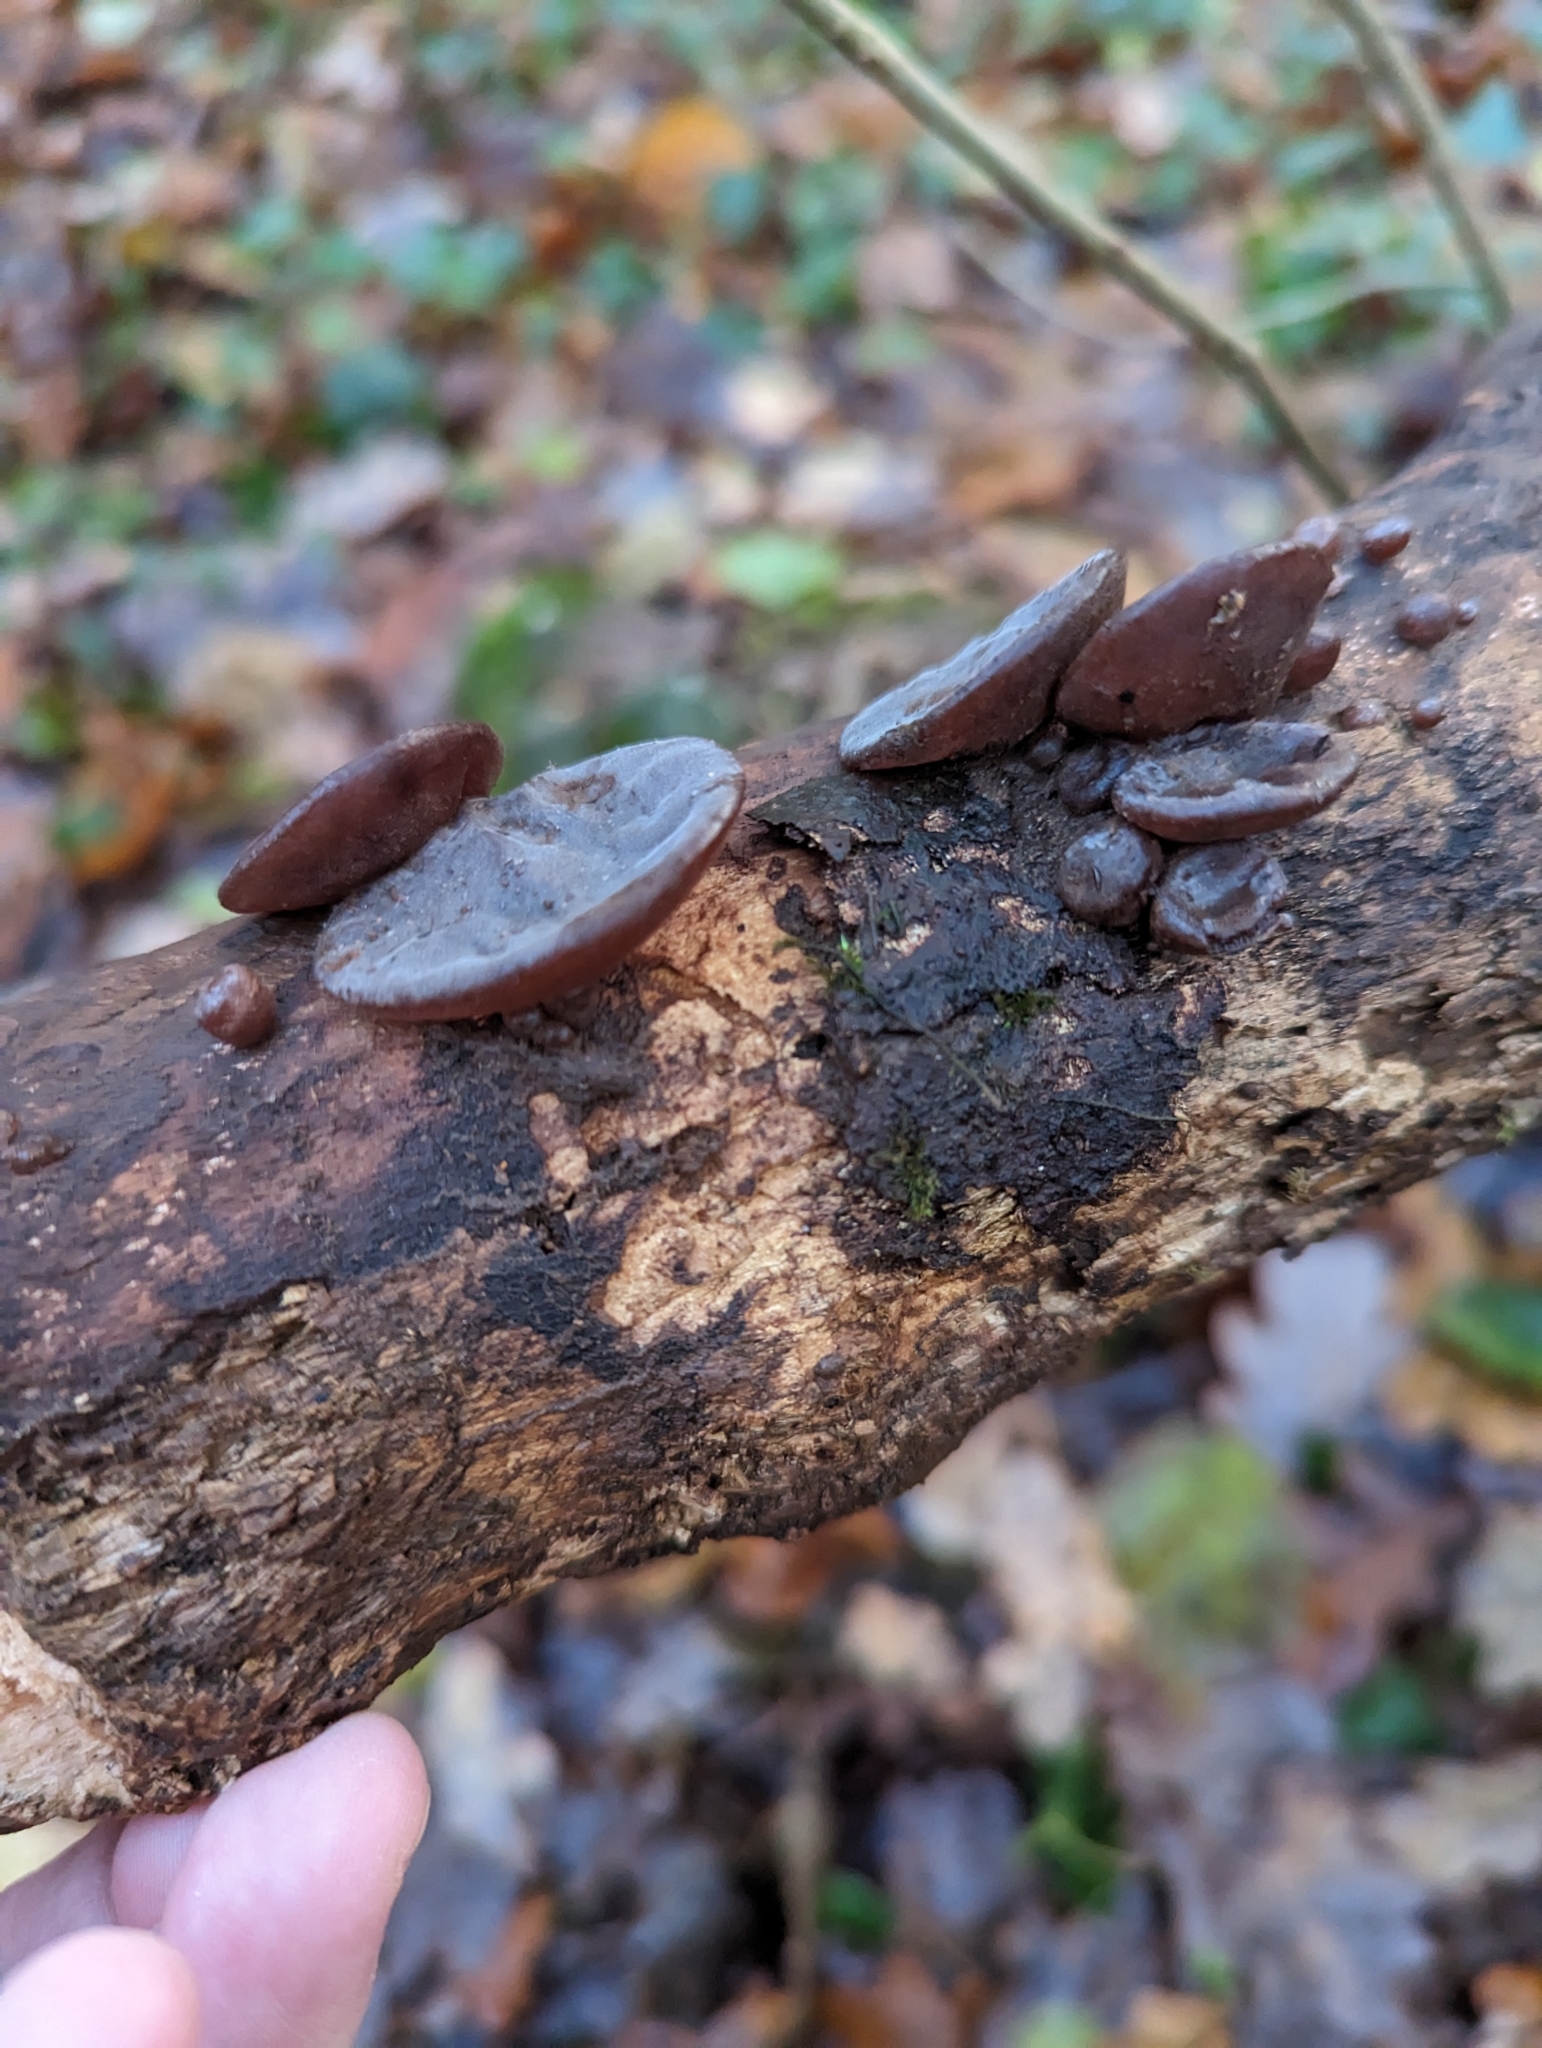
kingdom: Fungi
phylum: Basidiomycota
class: Agaricomycetes
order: Auriculariales
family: Auriculariaceae
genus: Auricularia
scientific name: Auricularia auricula-judae
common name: Jelly ear
